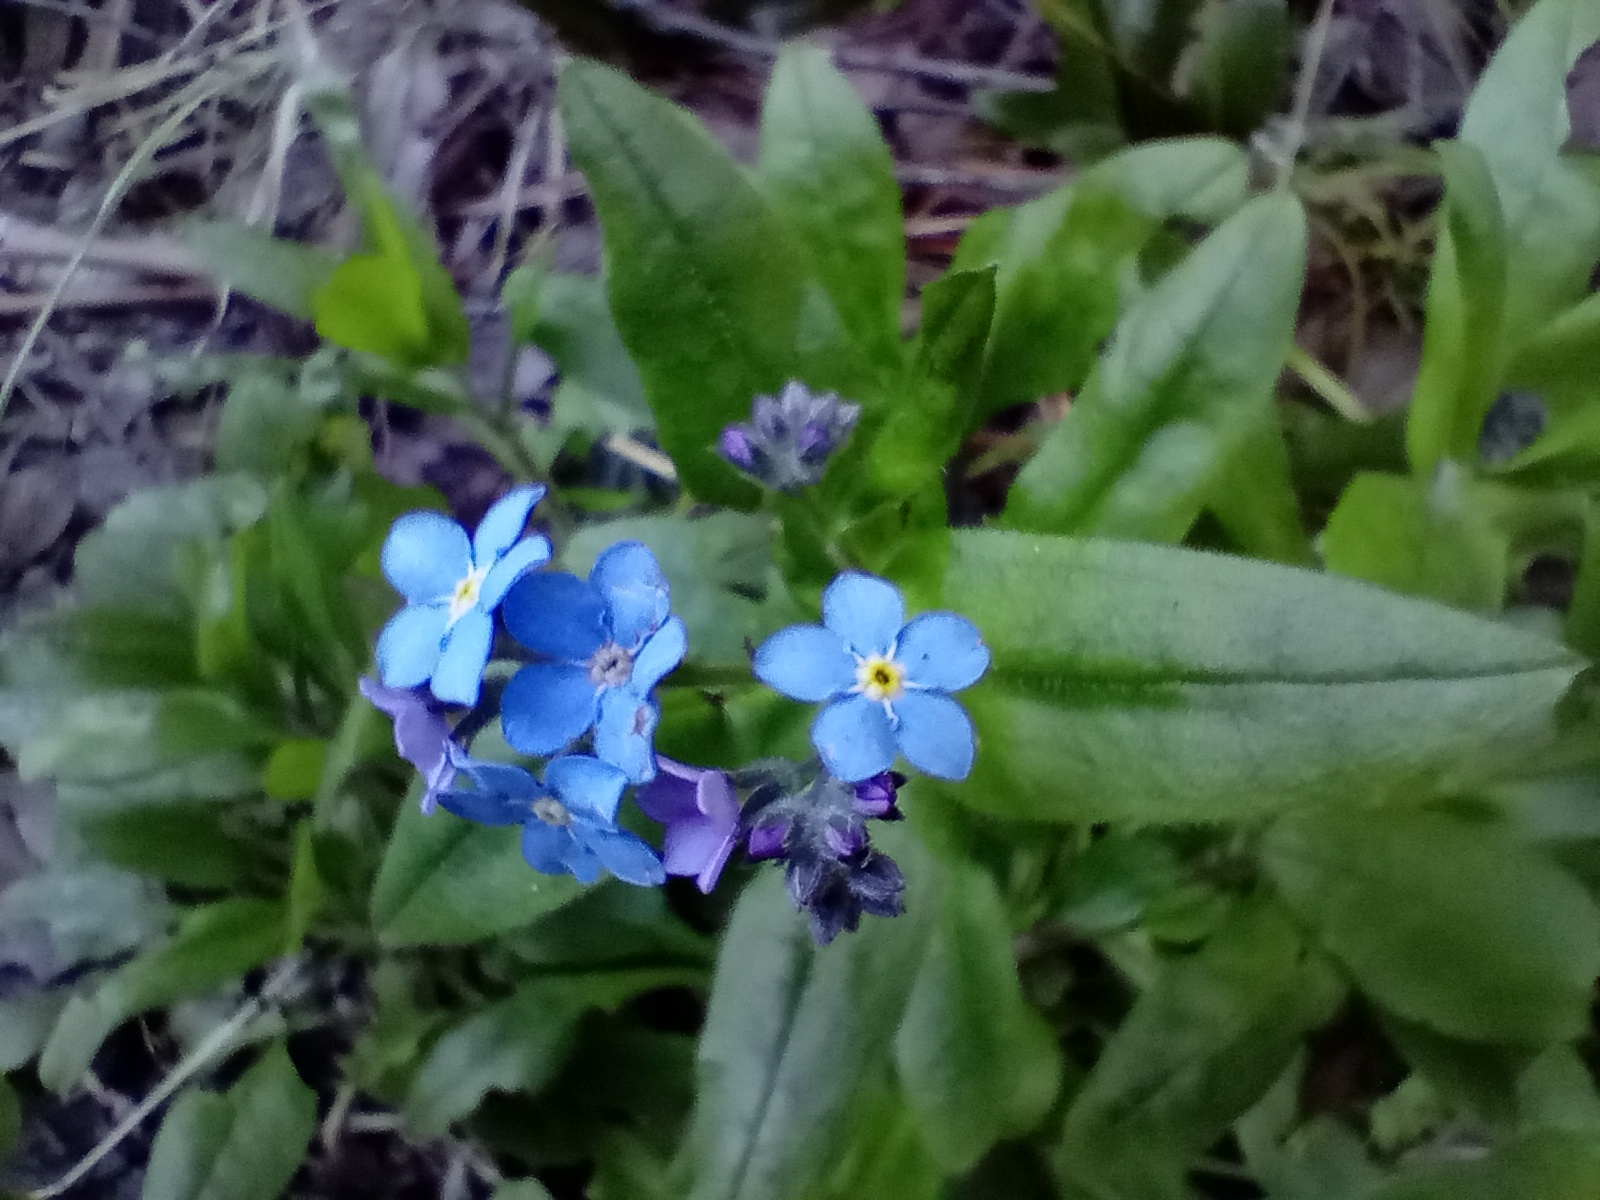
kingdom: Plantae
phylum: Tracheophyta
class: Magnoliopsida
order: Boraginales
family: Boraginaceae
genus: Myosotis
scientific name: Myosotis sylvatica
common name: Wood forget-me-not
